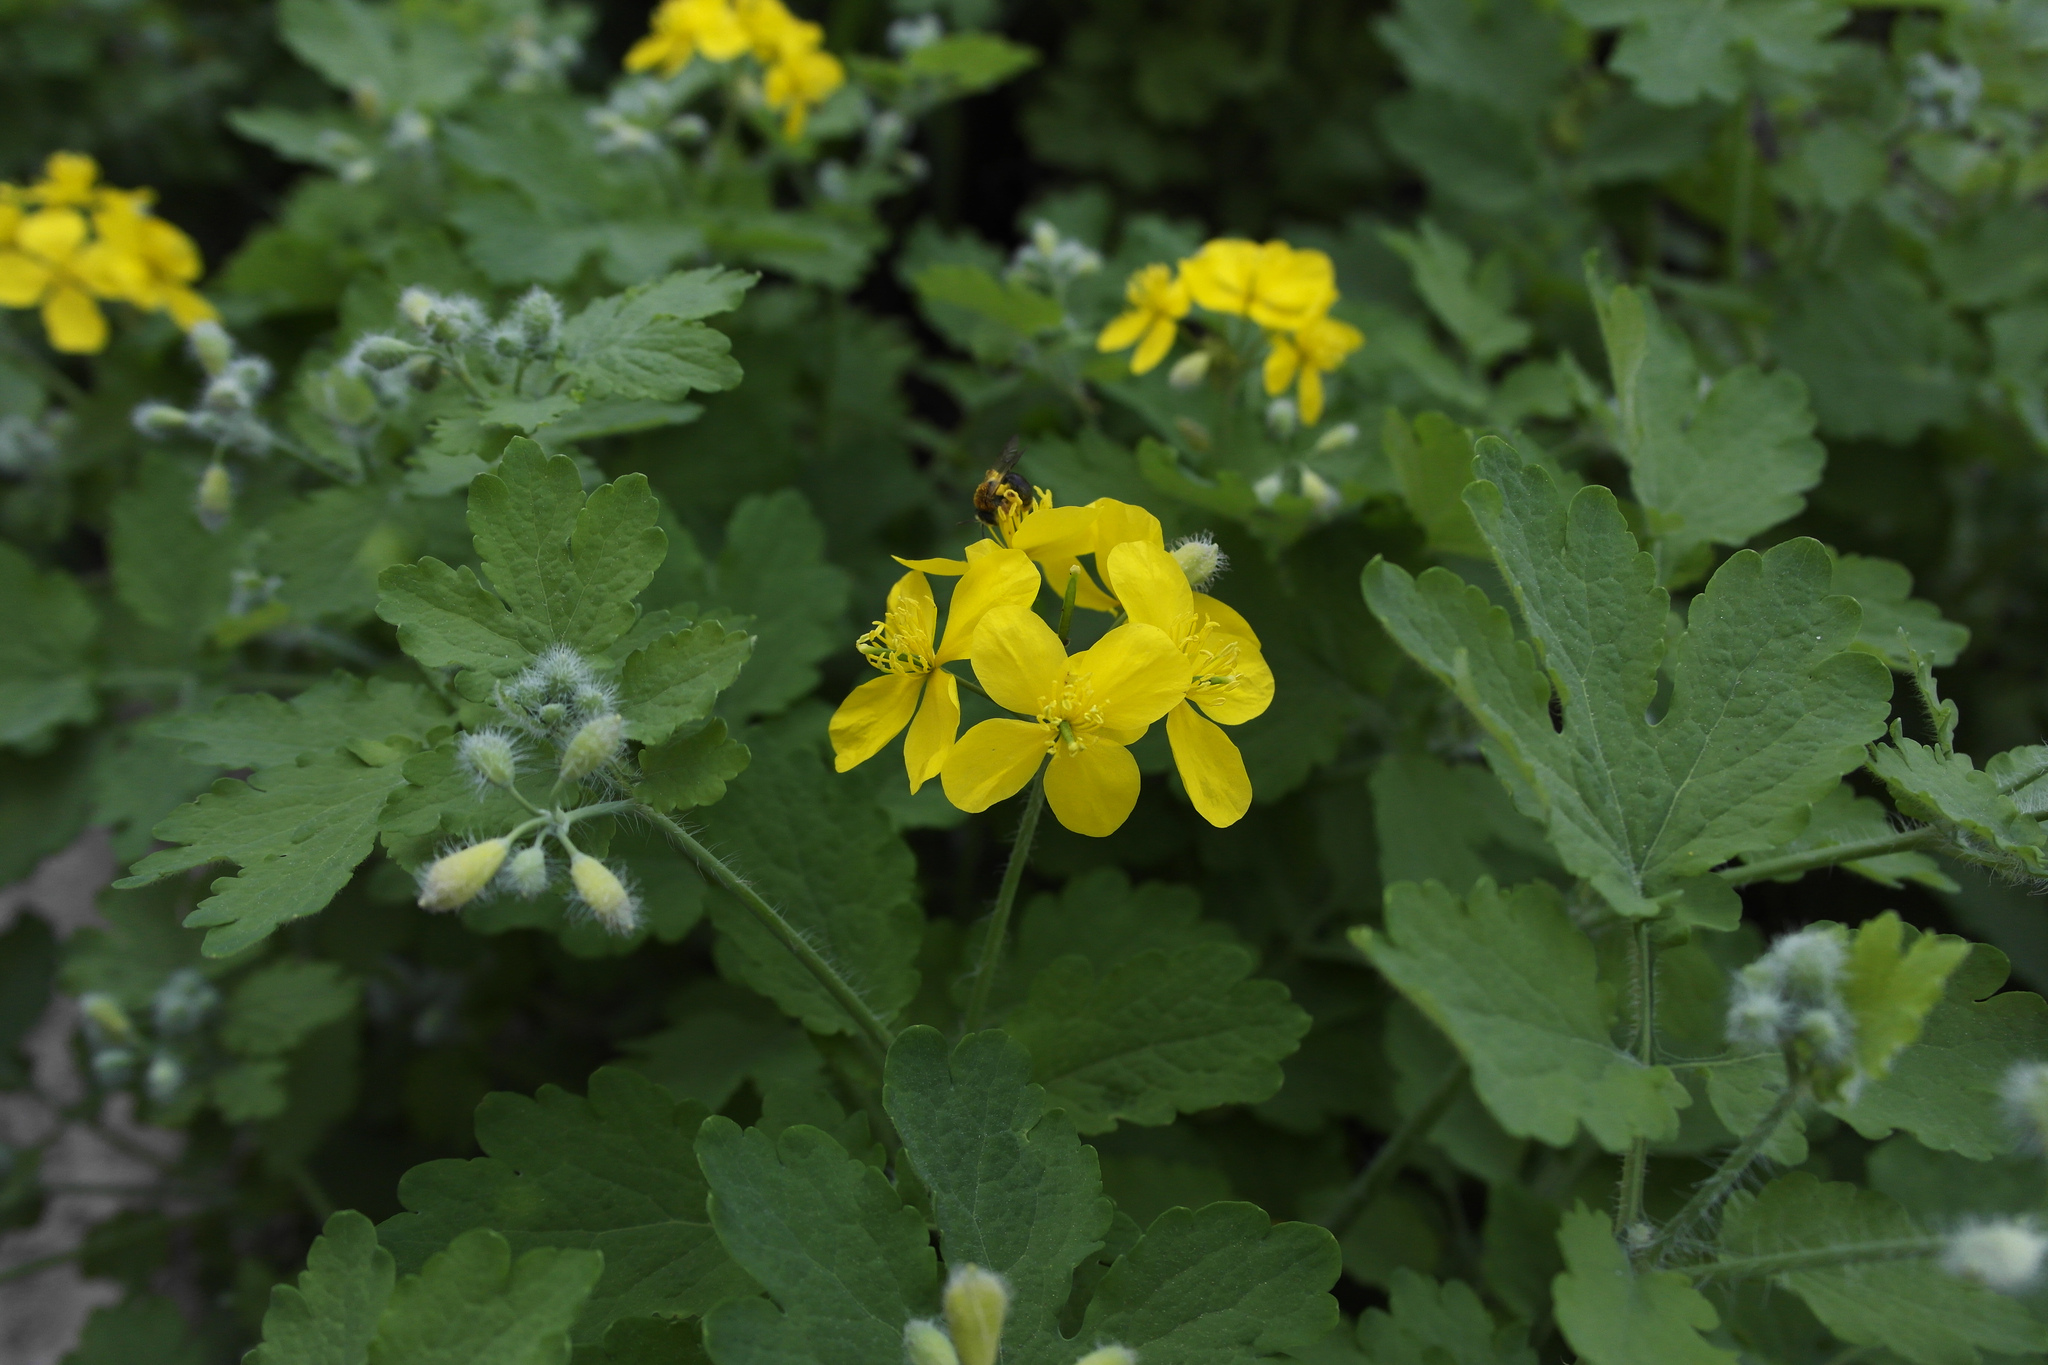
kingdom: Plantae
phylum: Tracheophyta
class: Magnoliopsida
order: Ranunculales
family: Papaveraceae
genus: Chelidonium
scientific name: Chelidonium majus
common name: Greater celandine
